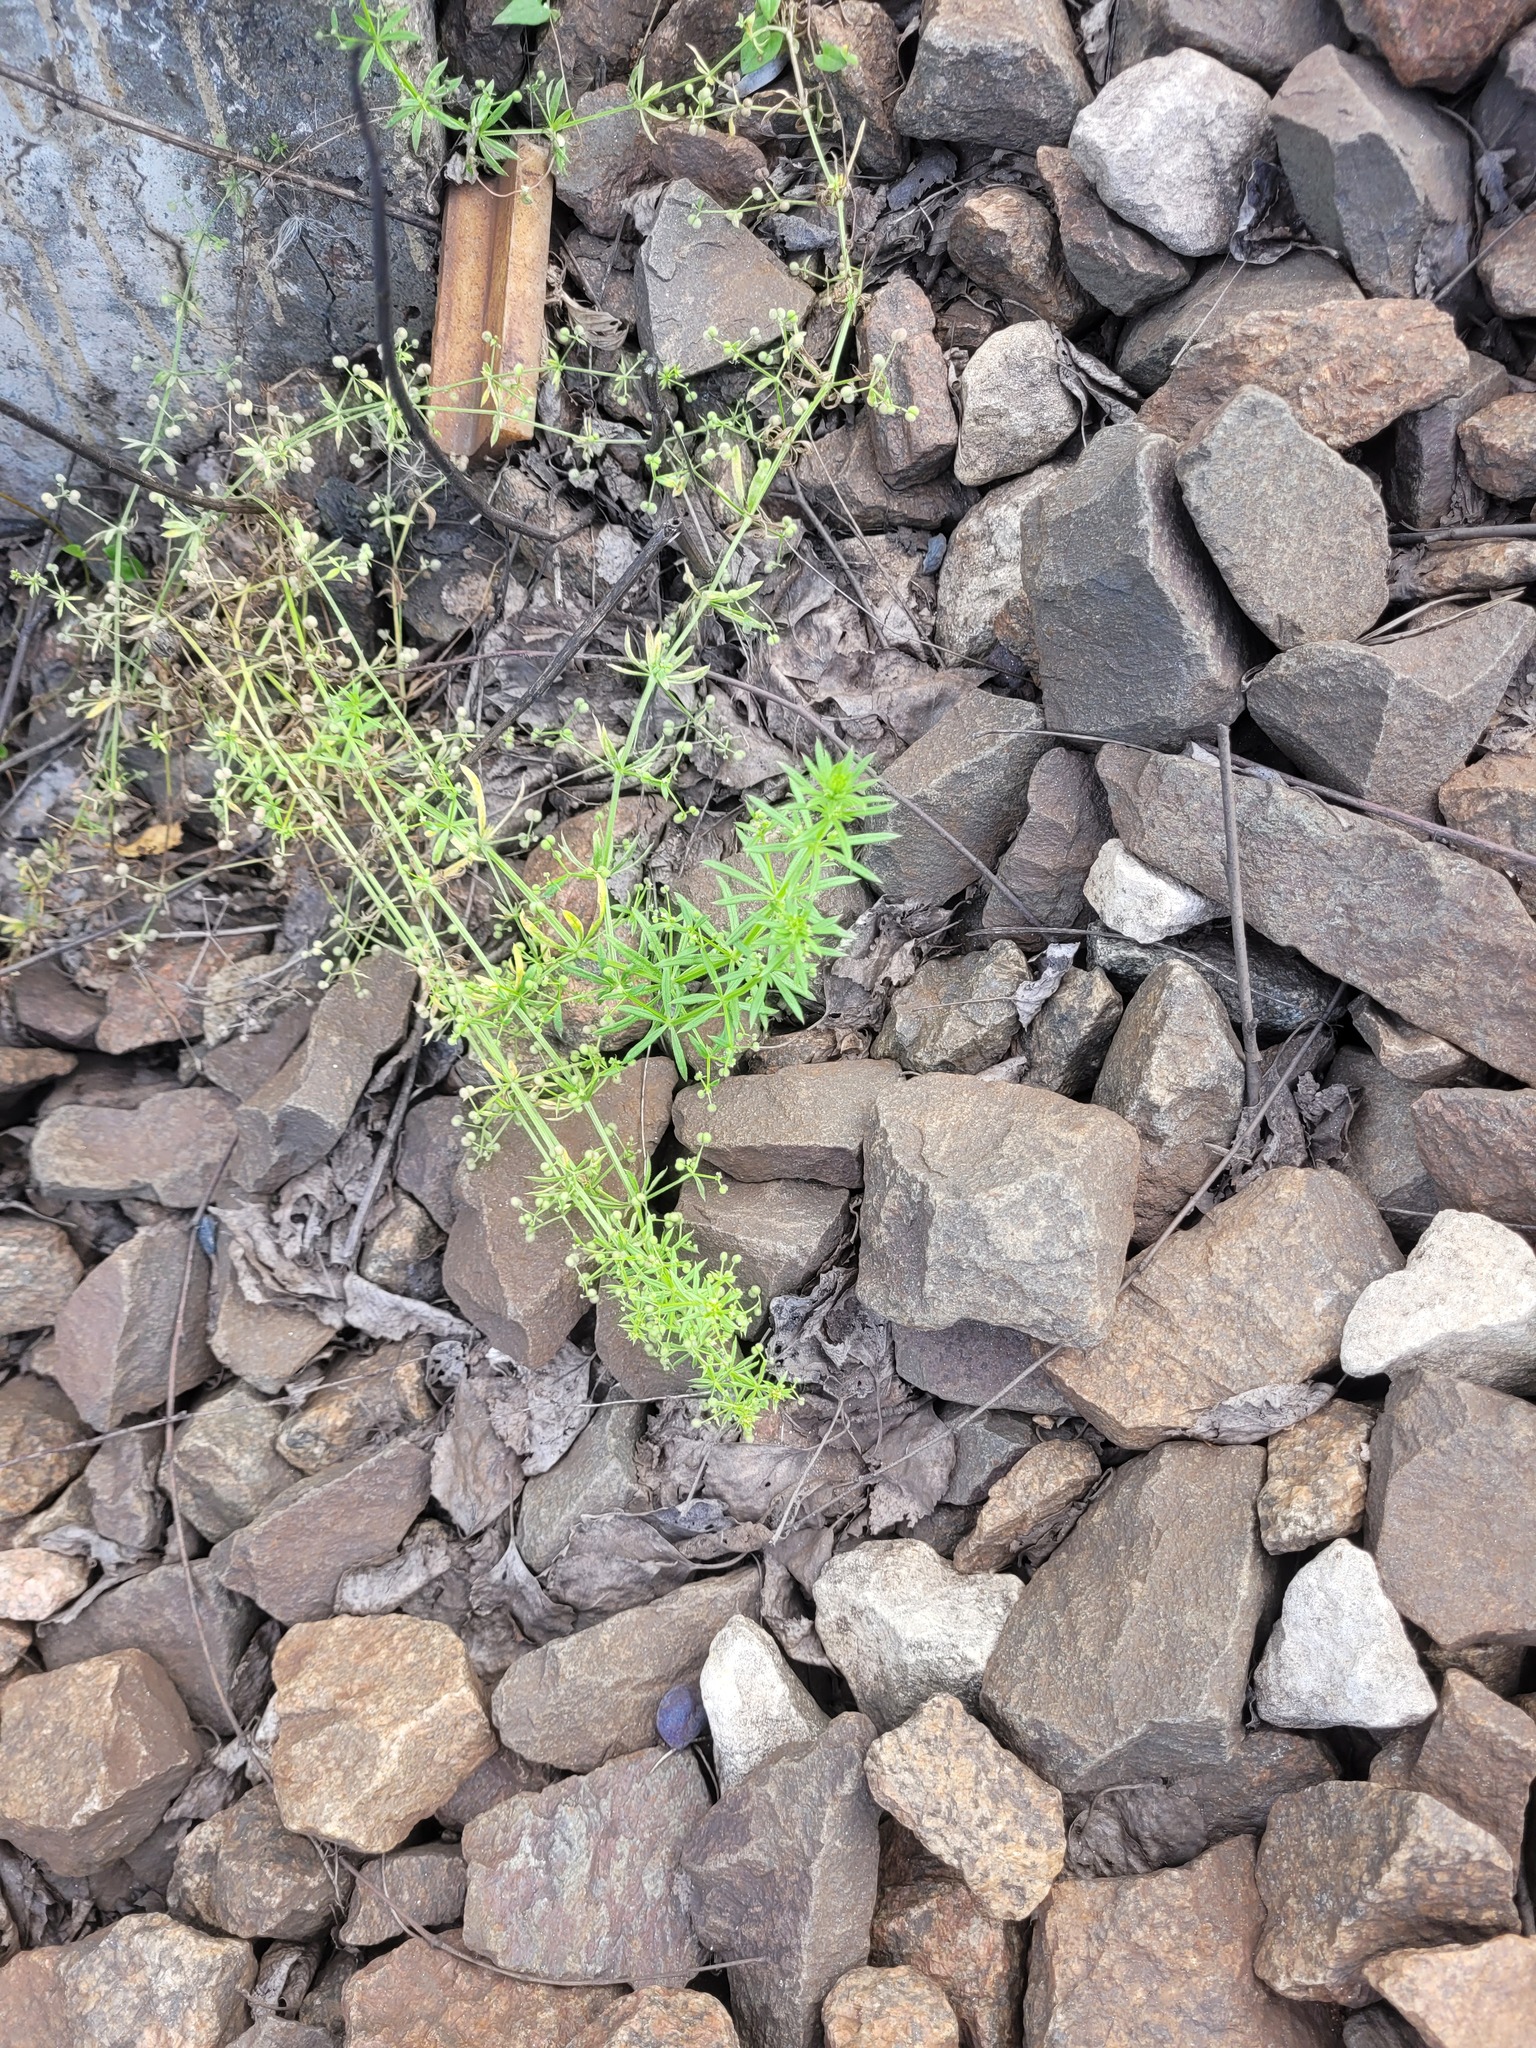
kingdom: Plantae
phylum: Tracheophyta
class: Magnoliopsida
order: Gentianales
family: Rubiaceae
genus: Galium
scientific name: Galium
